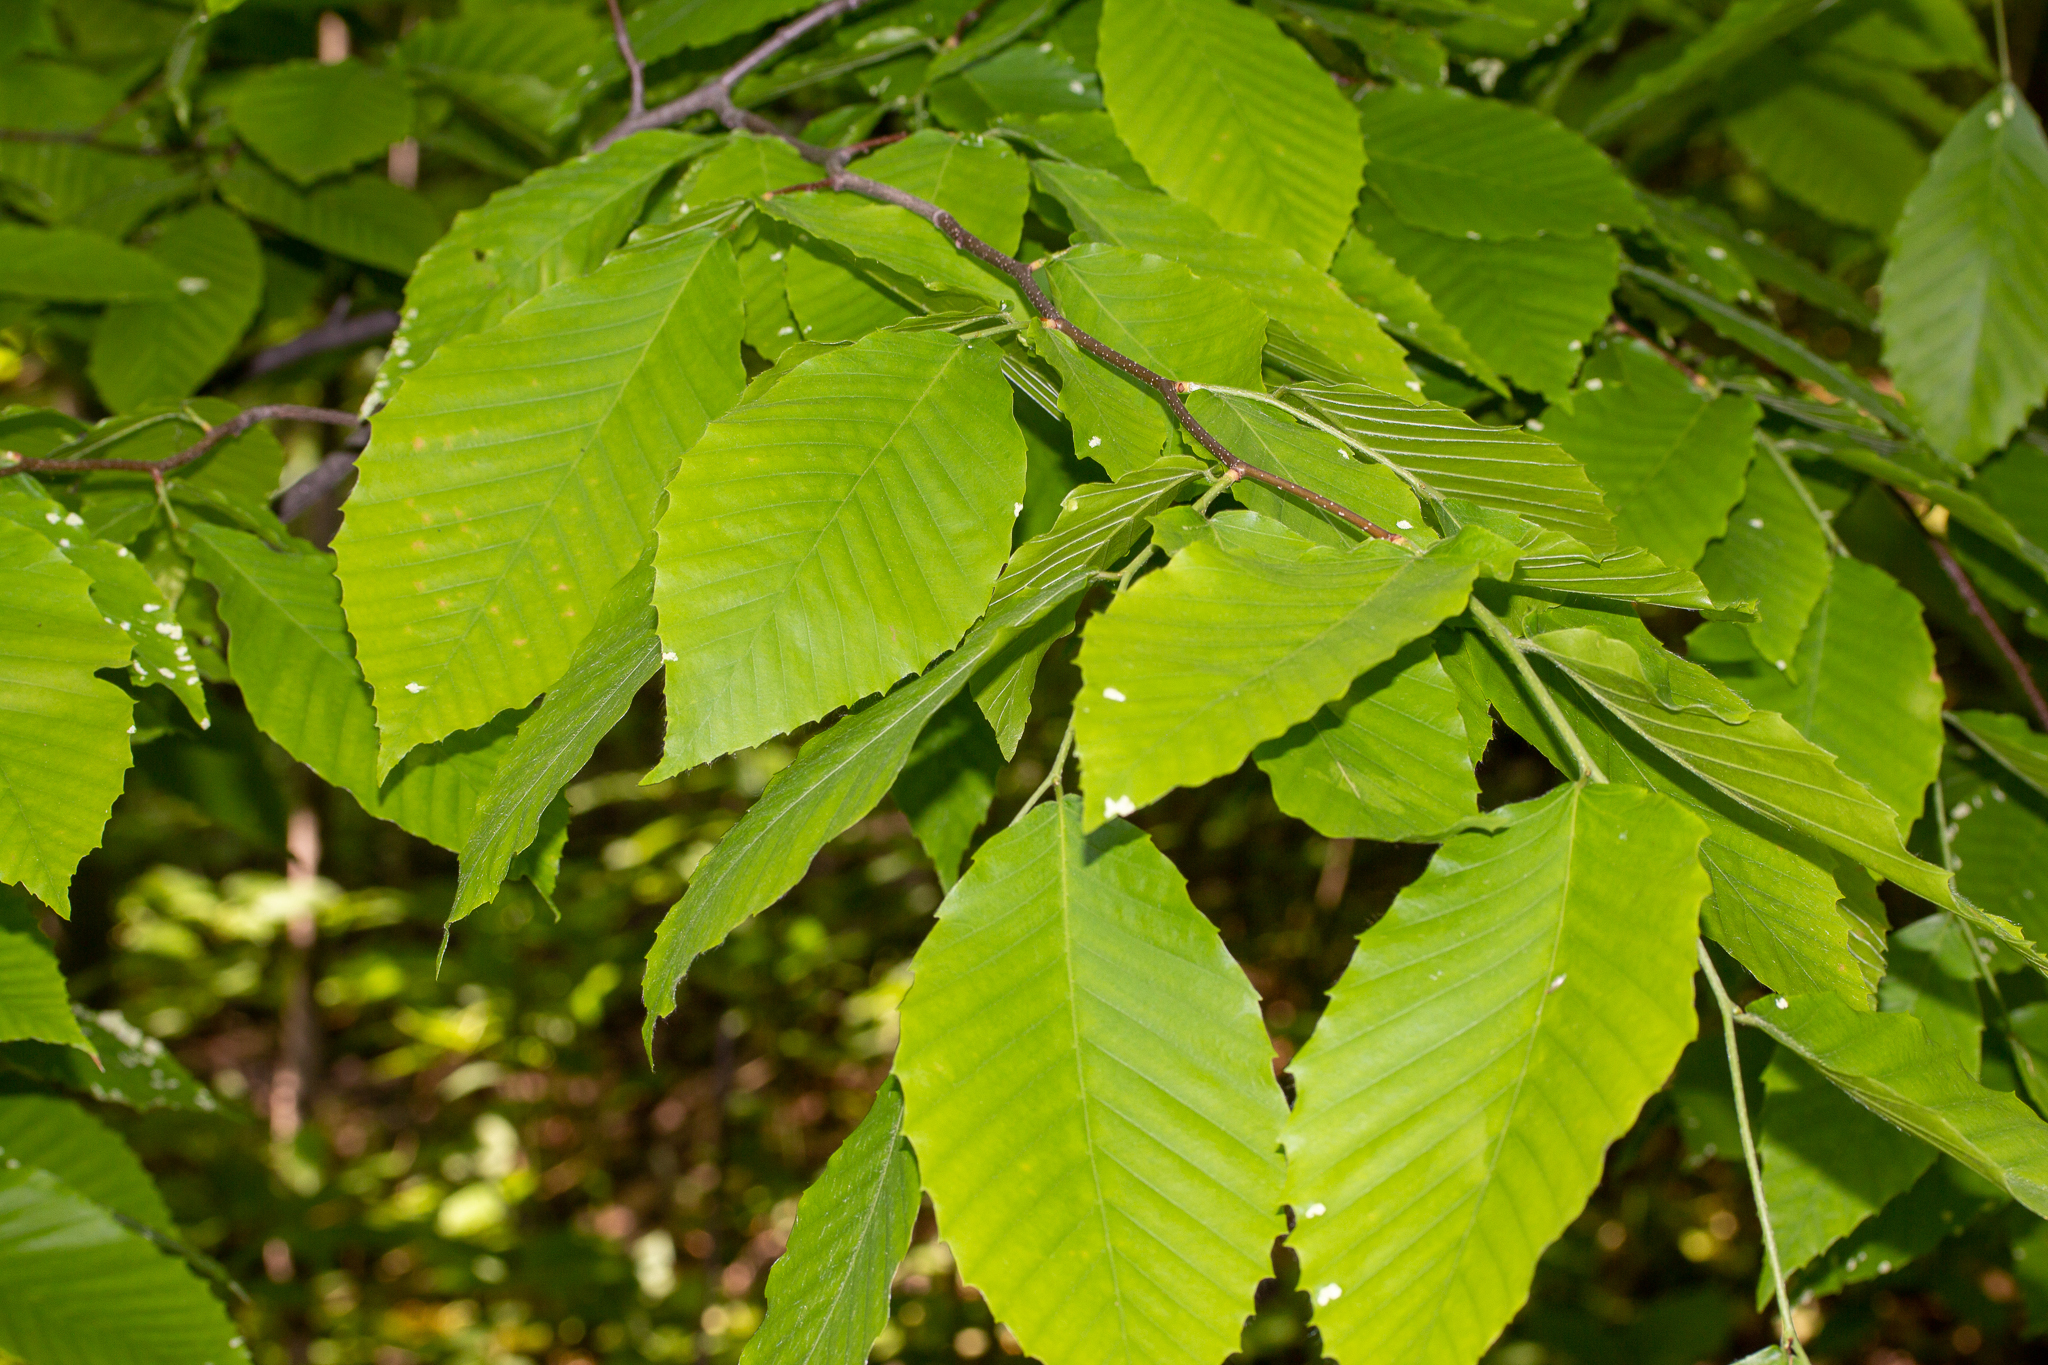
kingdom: Plantae
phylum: Tracheophyta
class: Magnoliopsida
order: Fagales
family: Fagaceae
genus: Fagus
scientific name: Fagus grandifolia
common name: American beech
